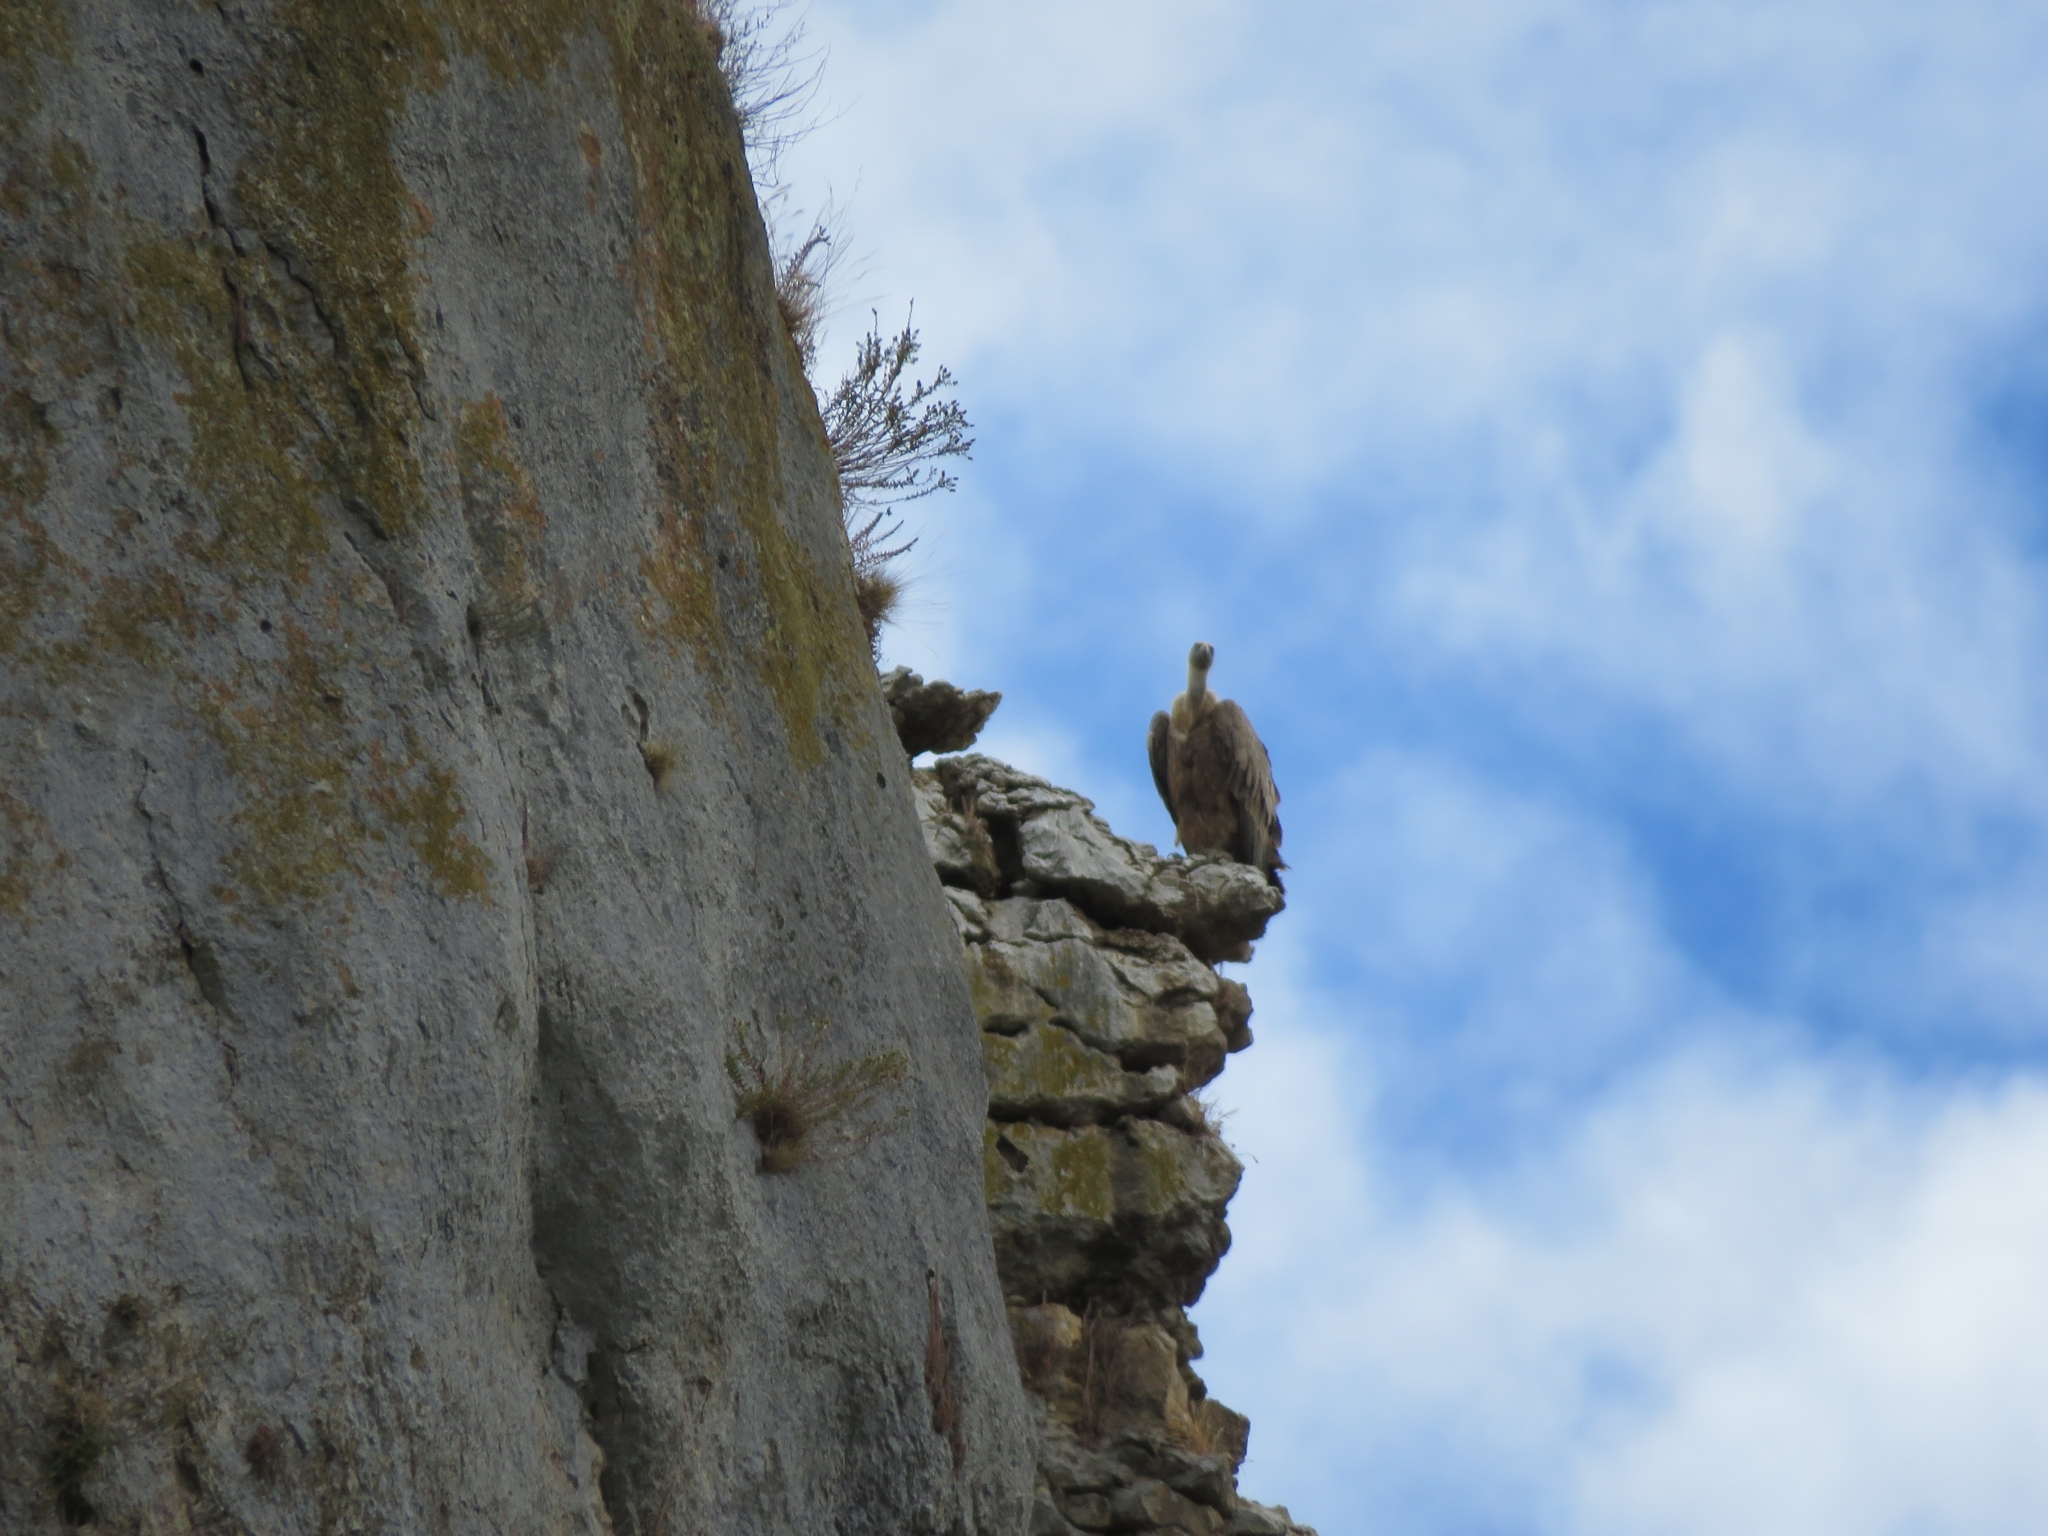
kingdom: Animalia
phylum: Chordata
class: Aves
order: Accipitriformes
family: Accipitridae
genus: Gyps
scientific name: Gyps fulvus
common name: Griffon vulture
